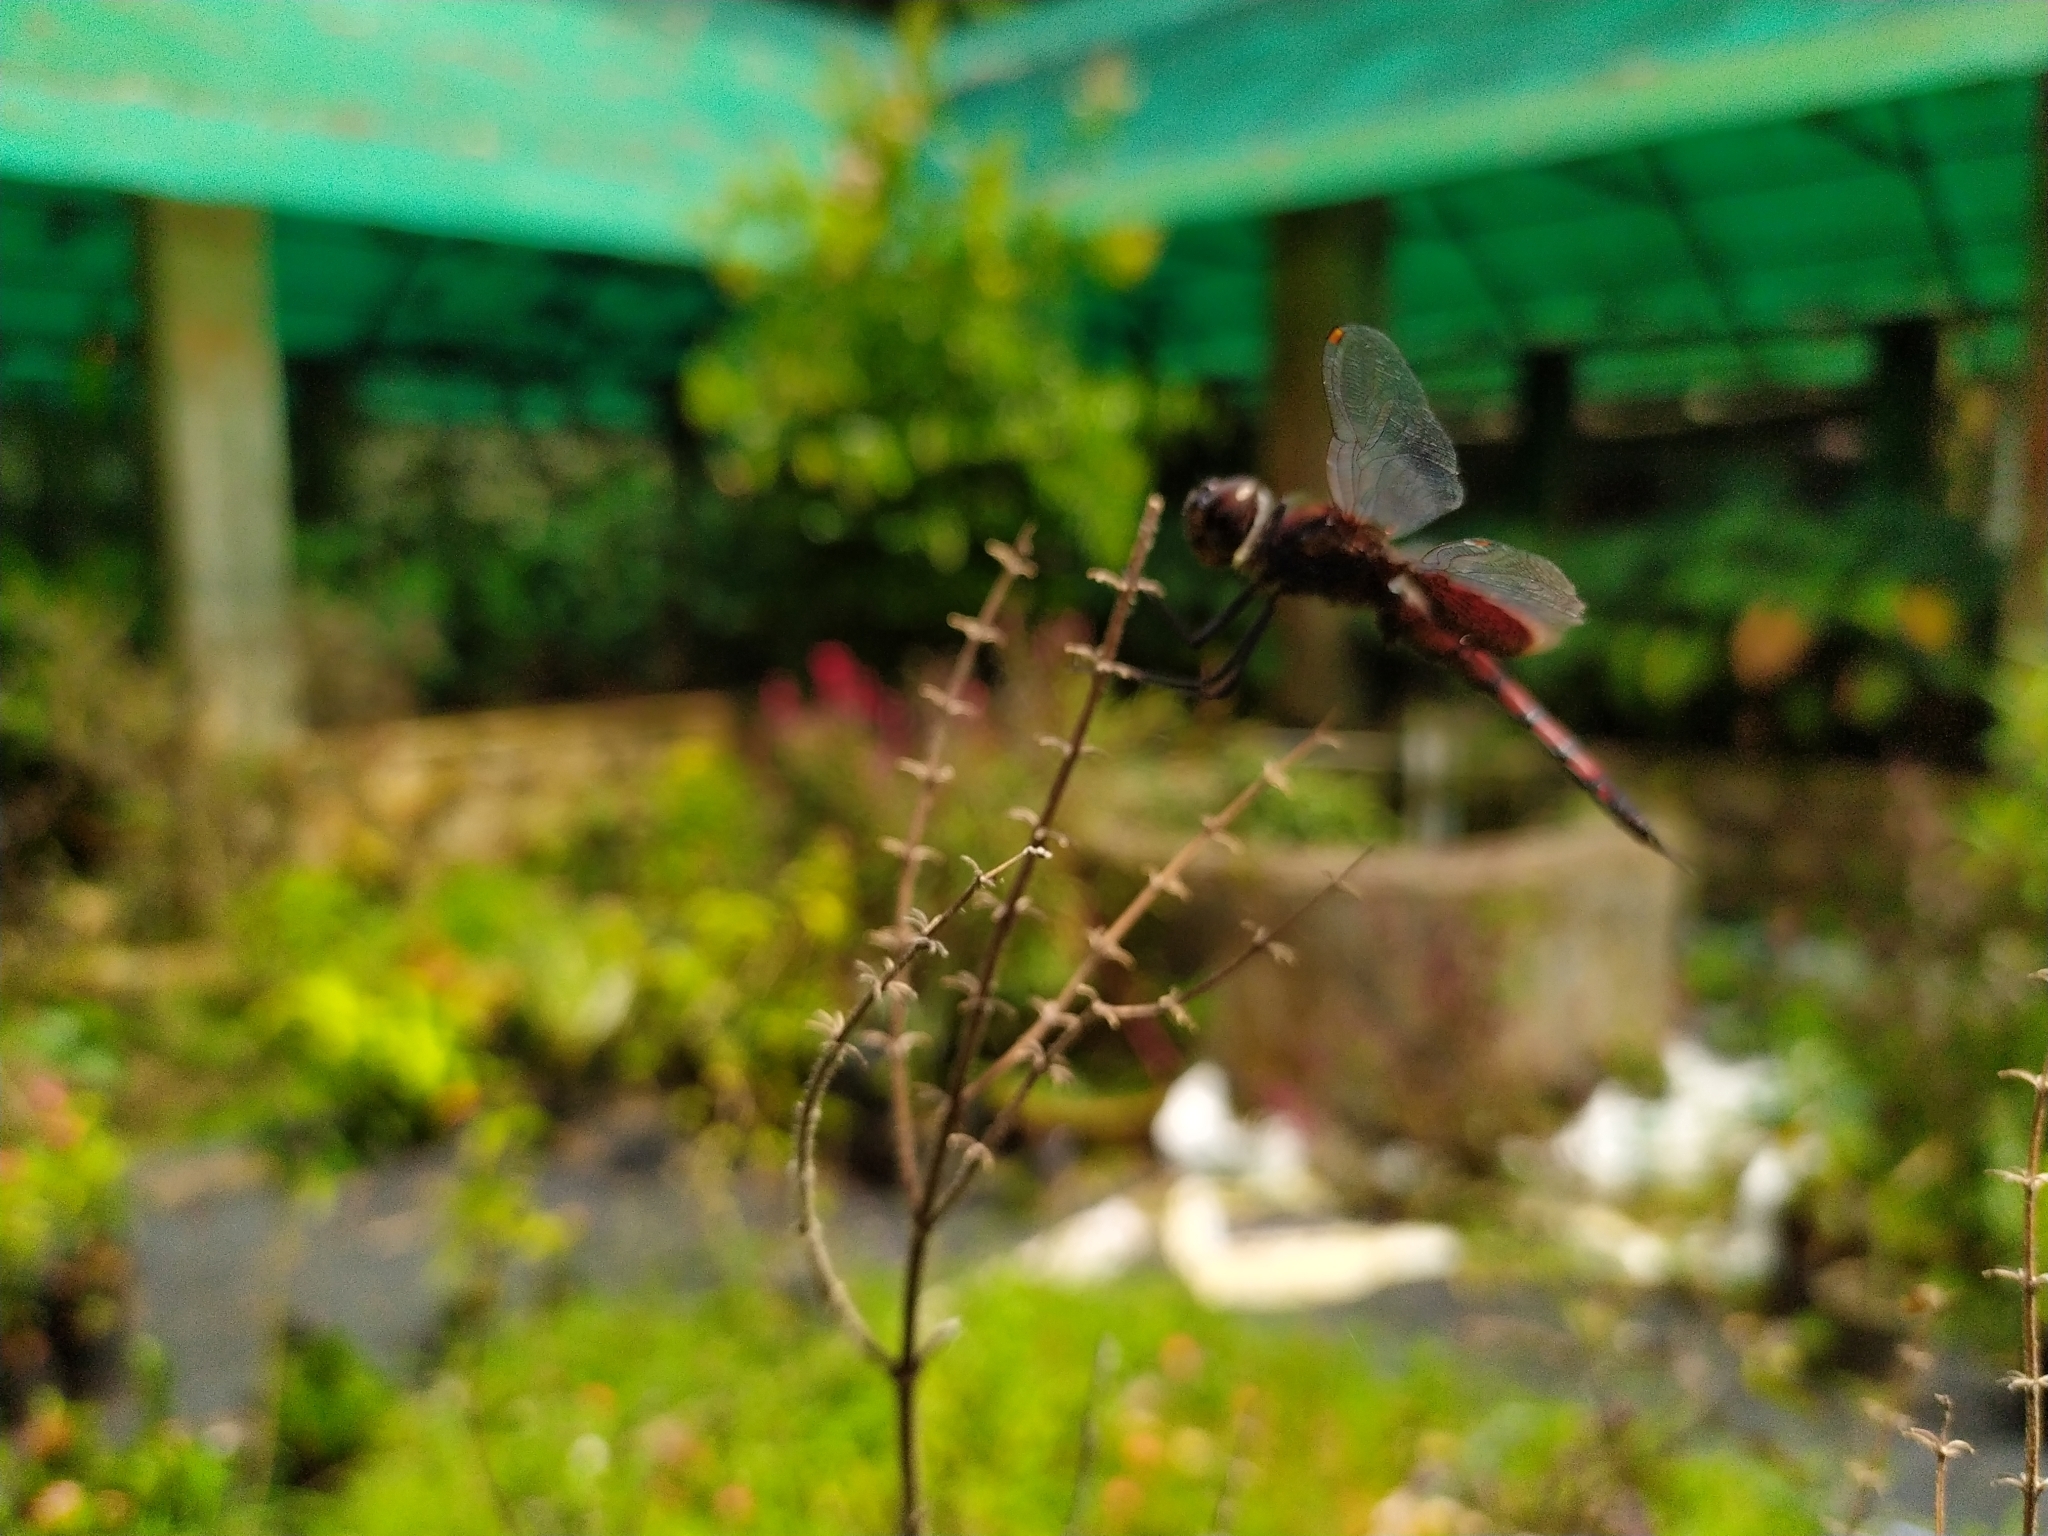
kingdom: Animalia
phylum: Arthropoda
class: Insecta
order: Odonata
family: Libellulidae
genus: Tramea
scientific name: Tramea limbata
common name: Ferruginous glider
